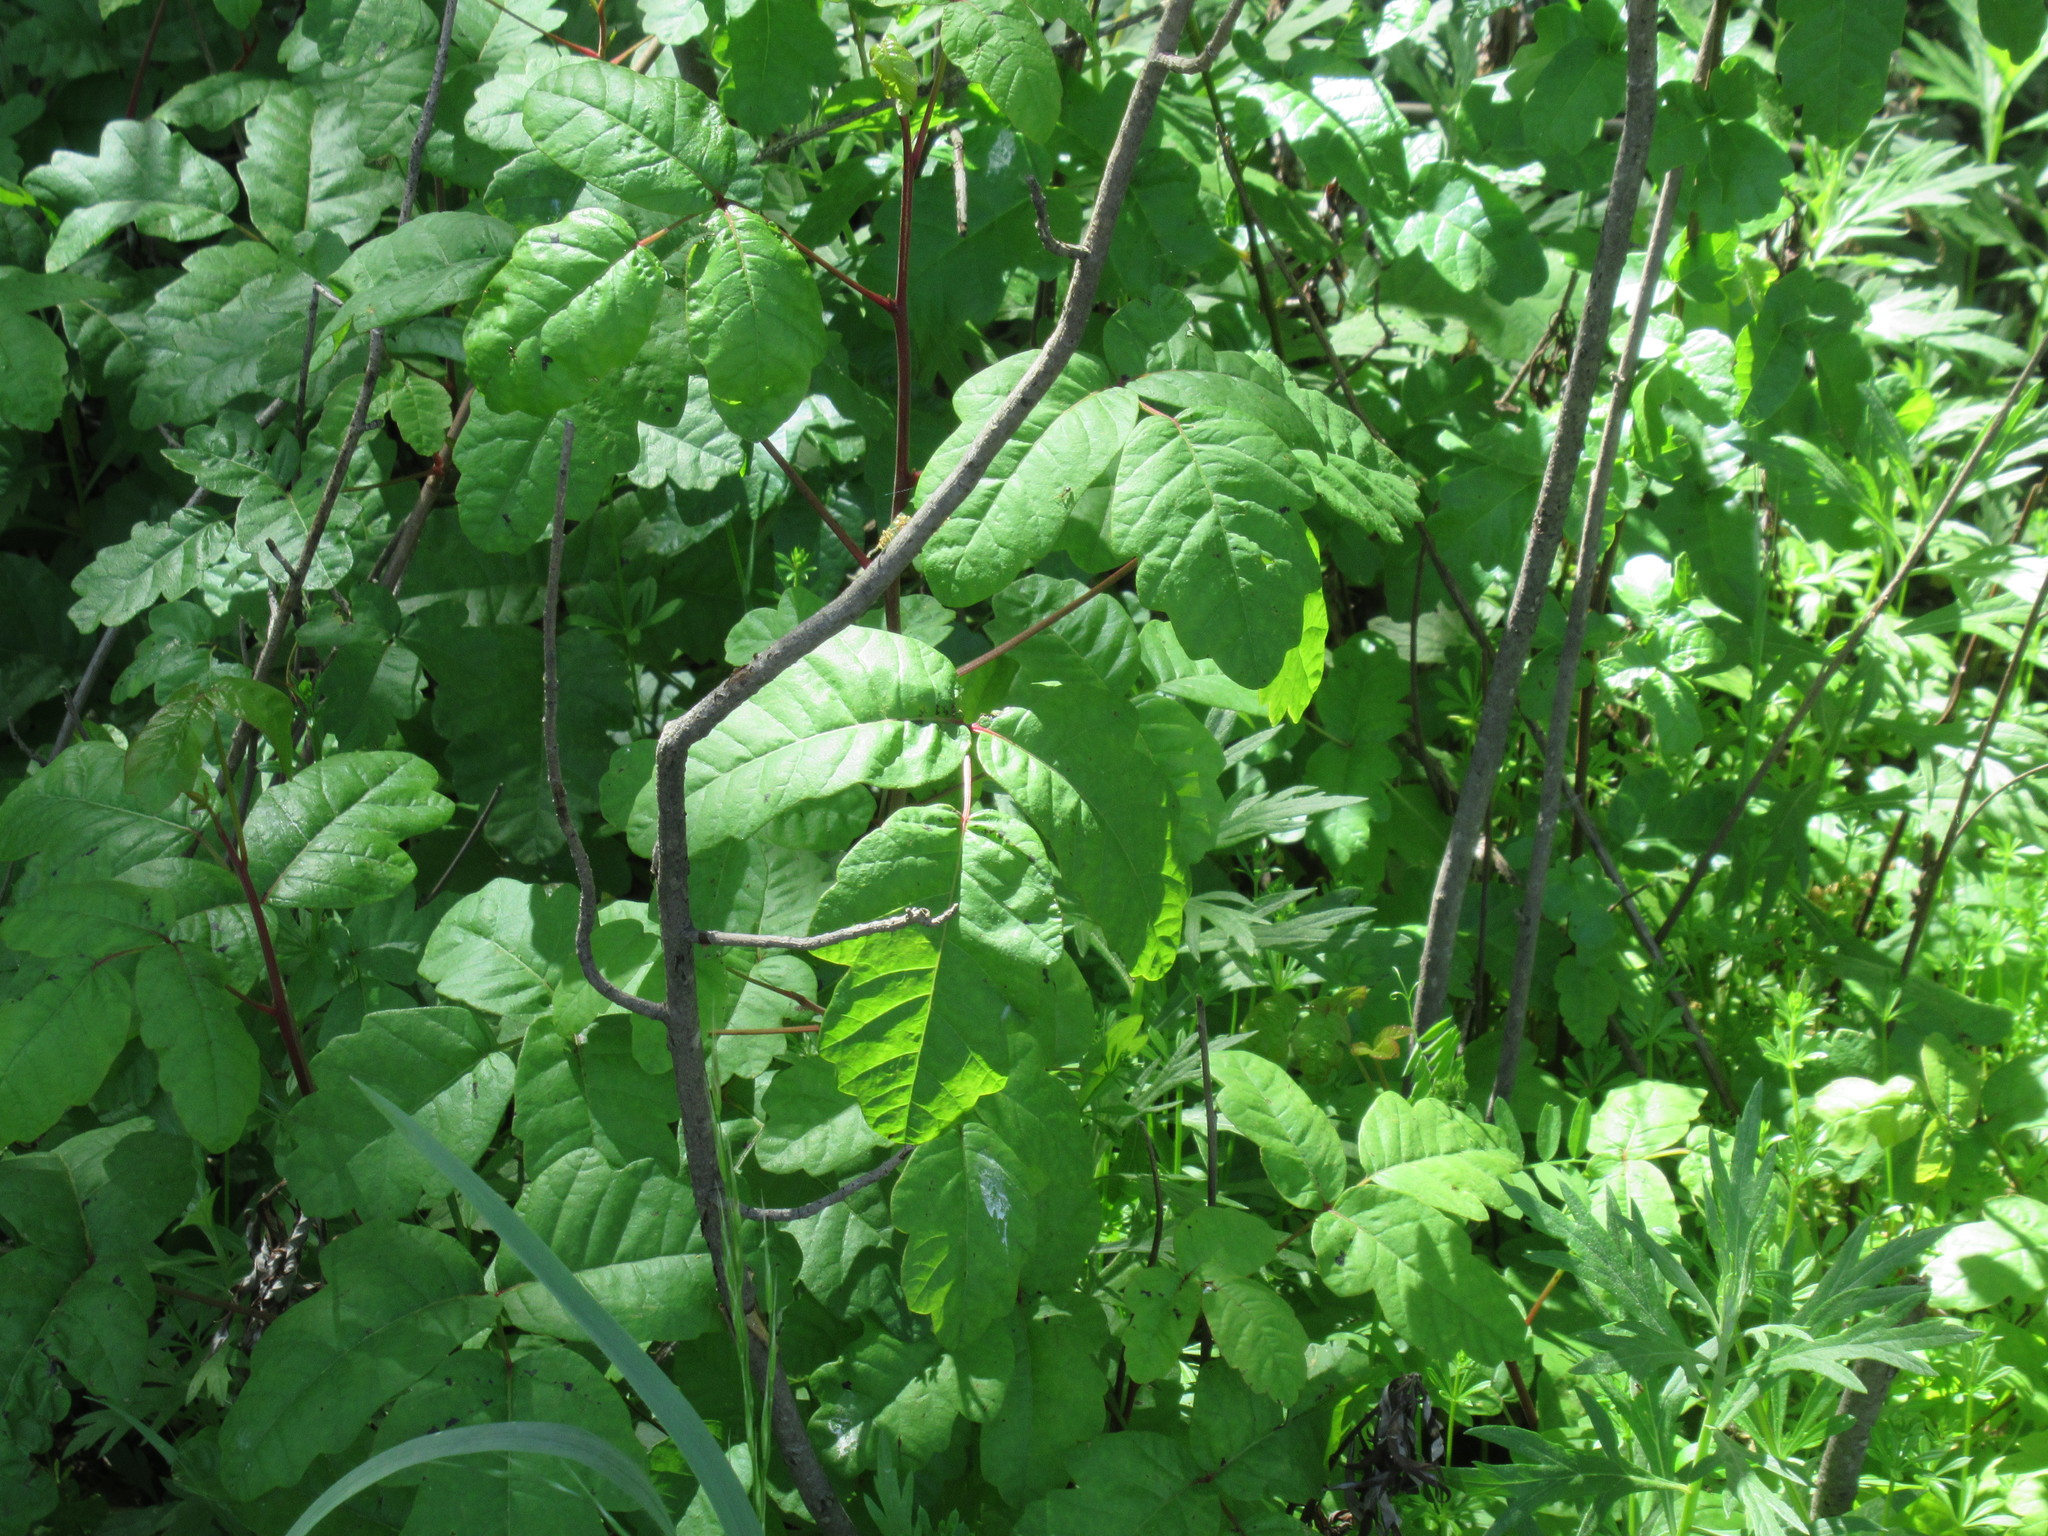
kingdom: Plantae
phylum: Tracheophyta
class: Magnoliopsida
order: Sapindales
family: Anacardiaceae
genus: Toxicodendron
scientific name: Toxicodendron diversilobum
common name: Pacific poison-oak
